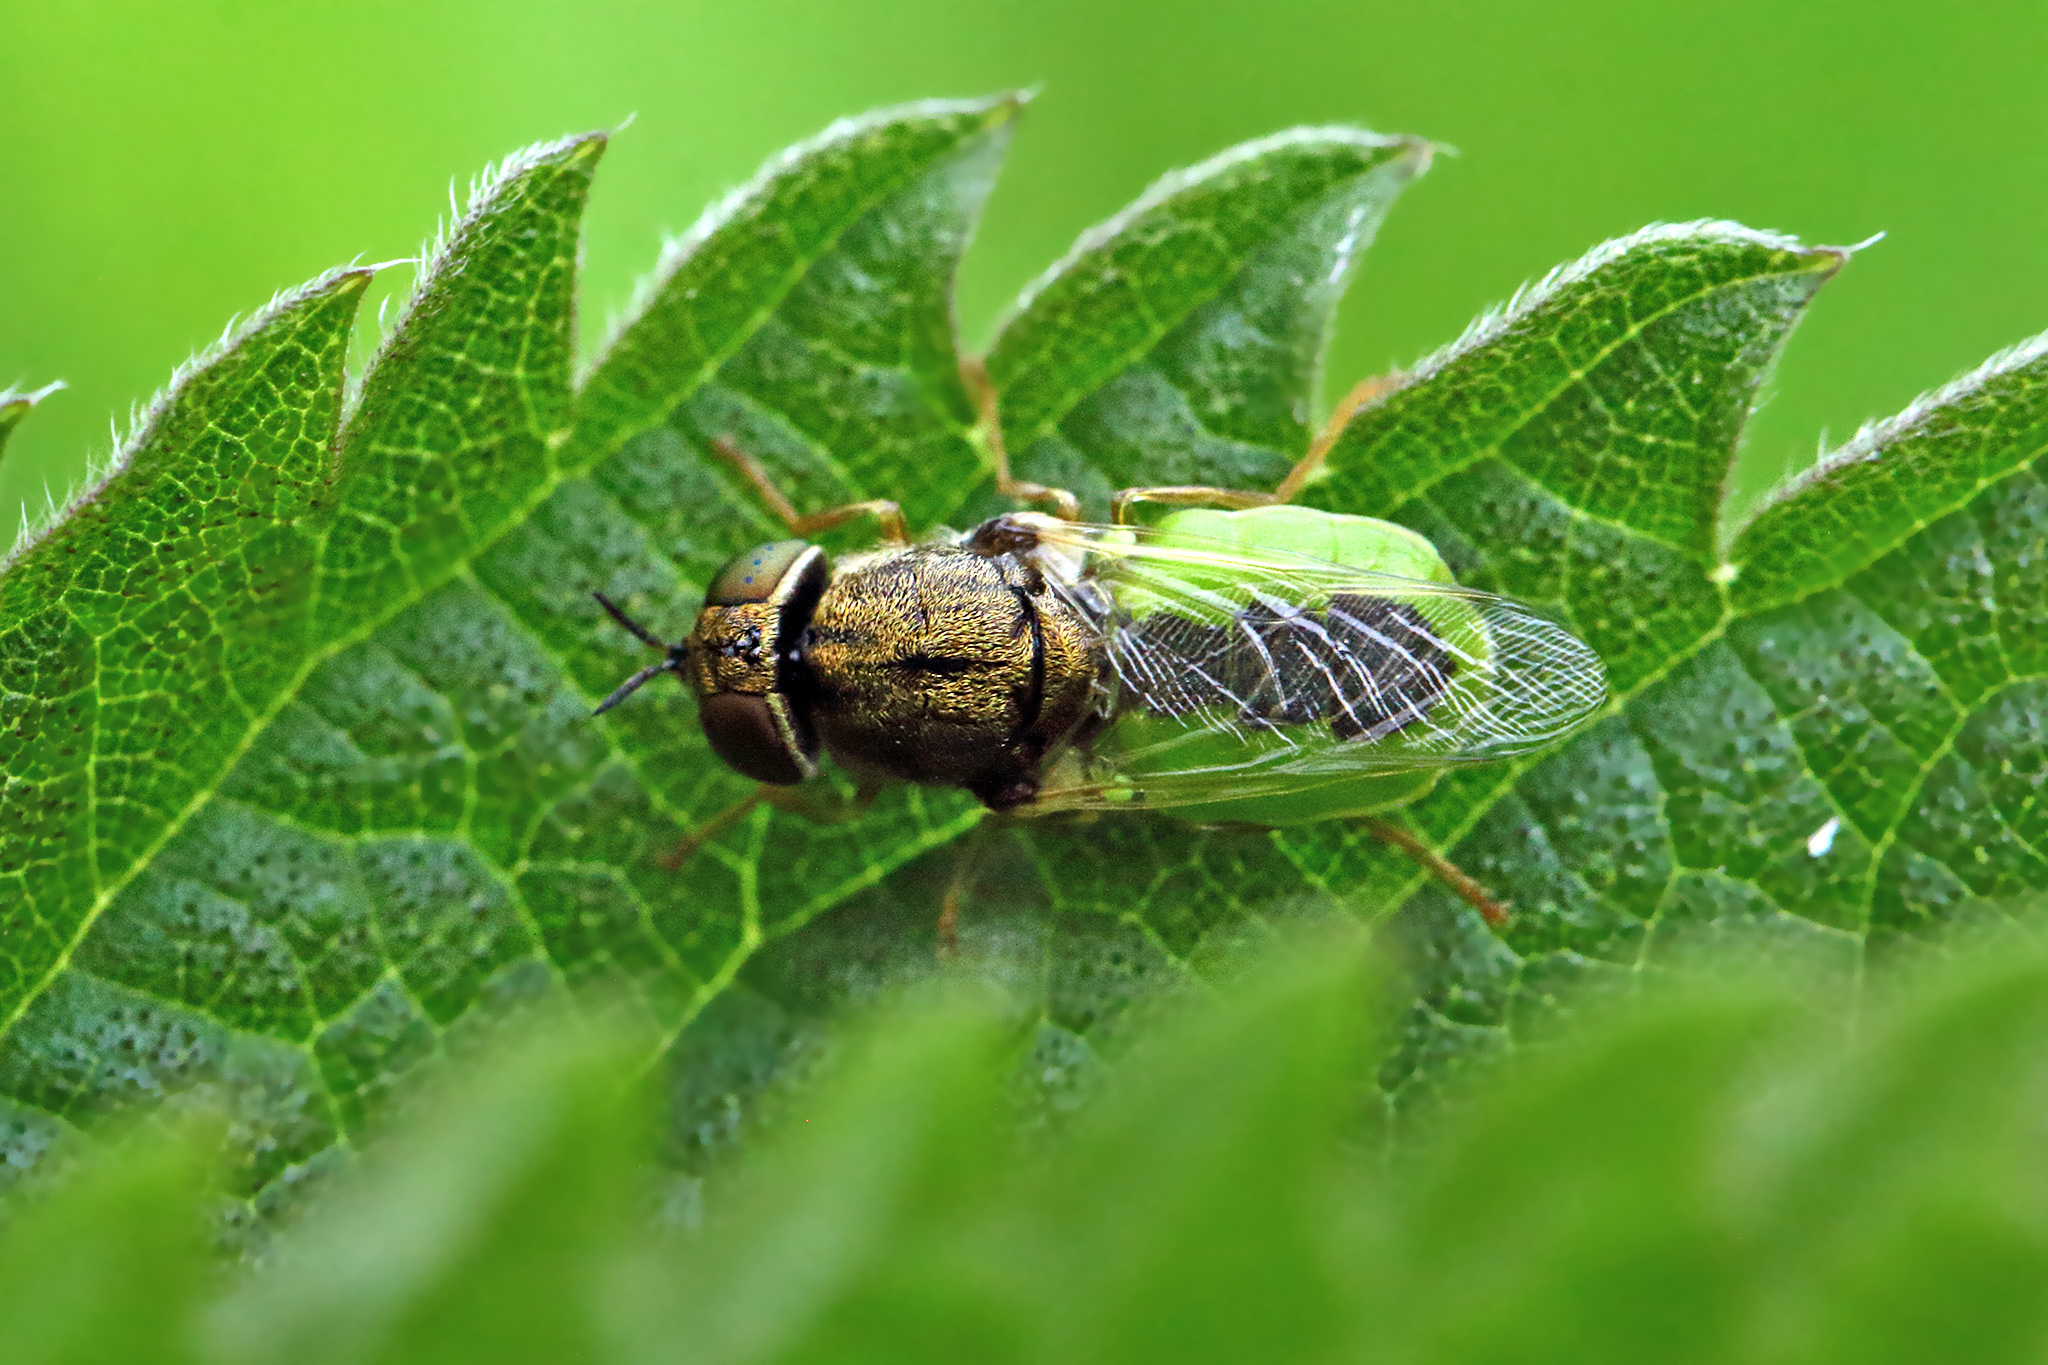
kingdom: Animalia
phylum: Arthropoda
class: Insecta
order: Diptera
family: Stratiomyidae
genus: Oplodontha
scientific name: Oplodontha viridula
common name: Common green colonel
